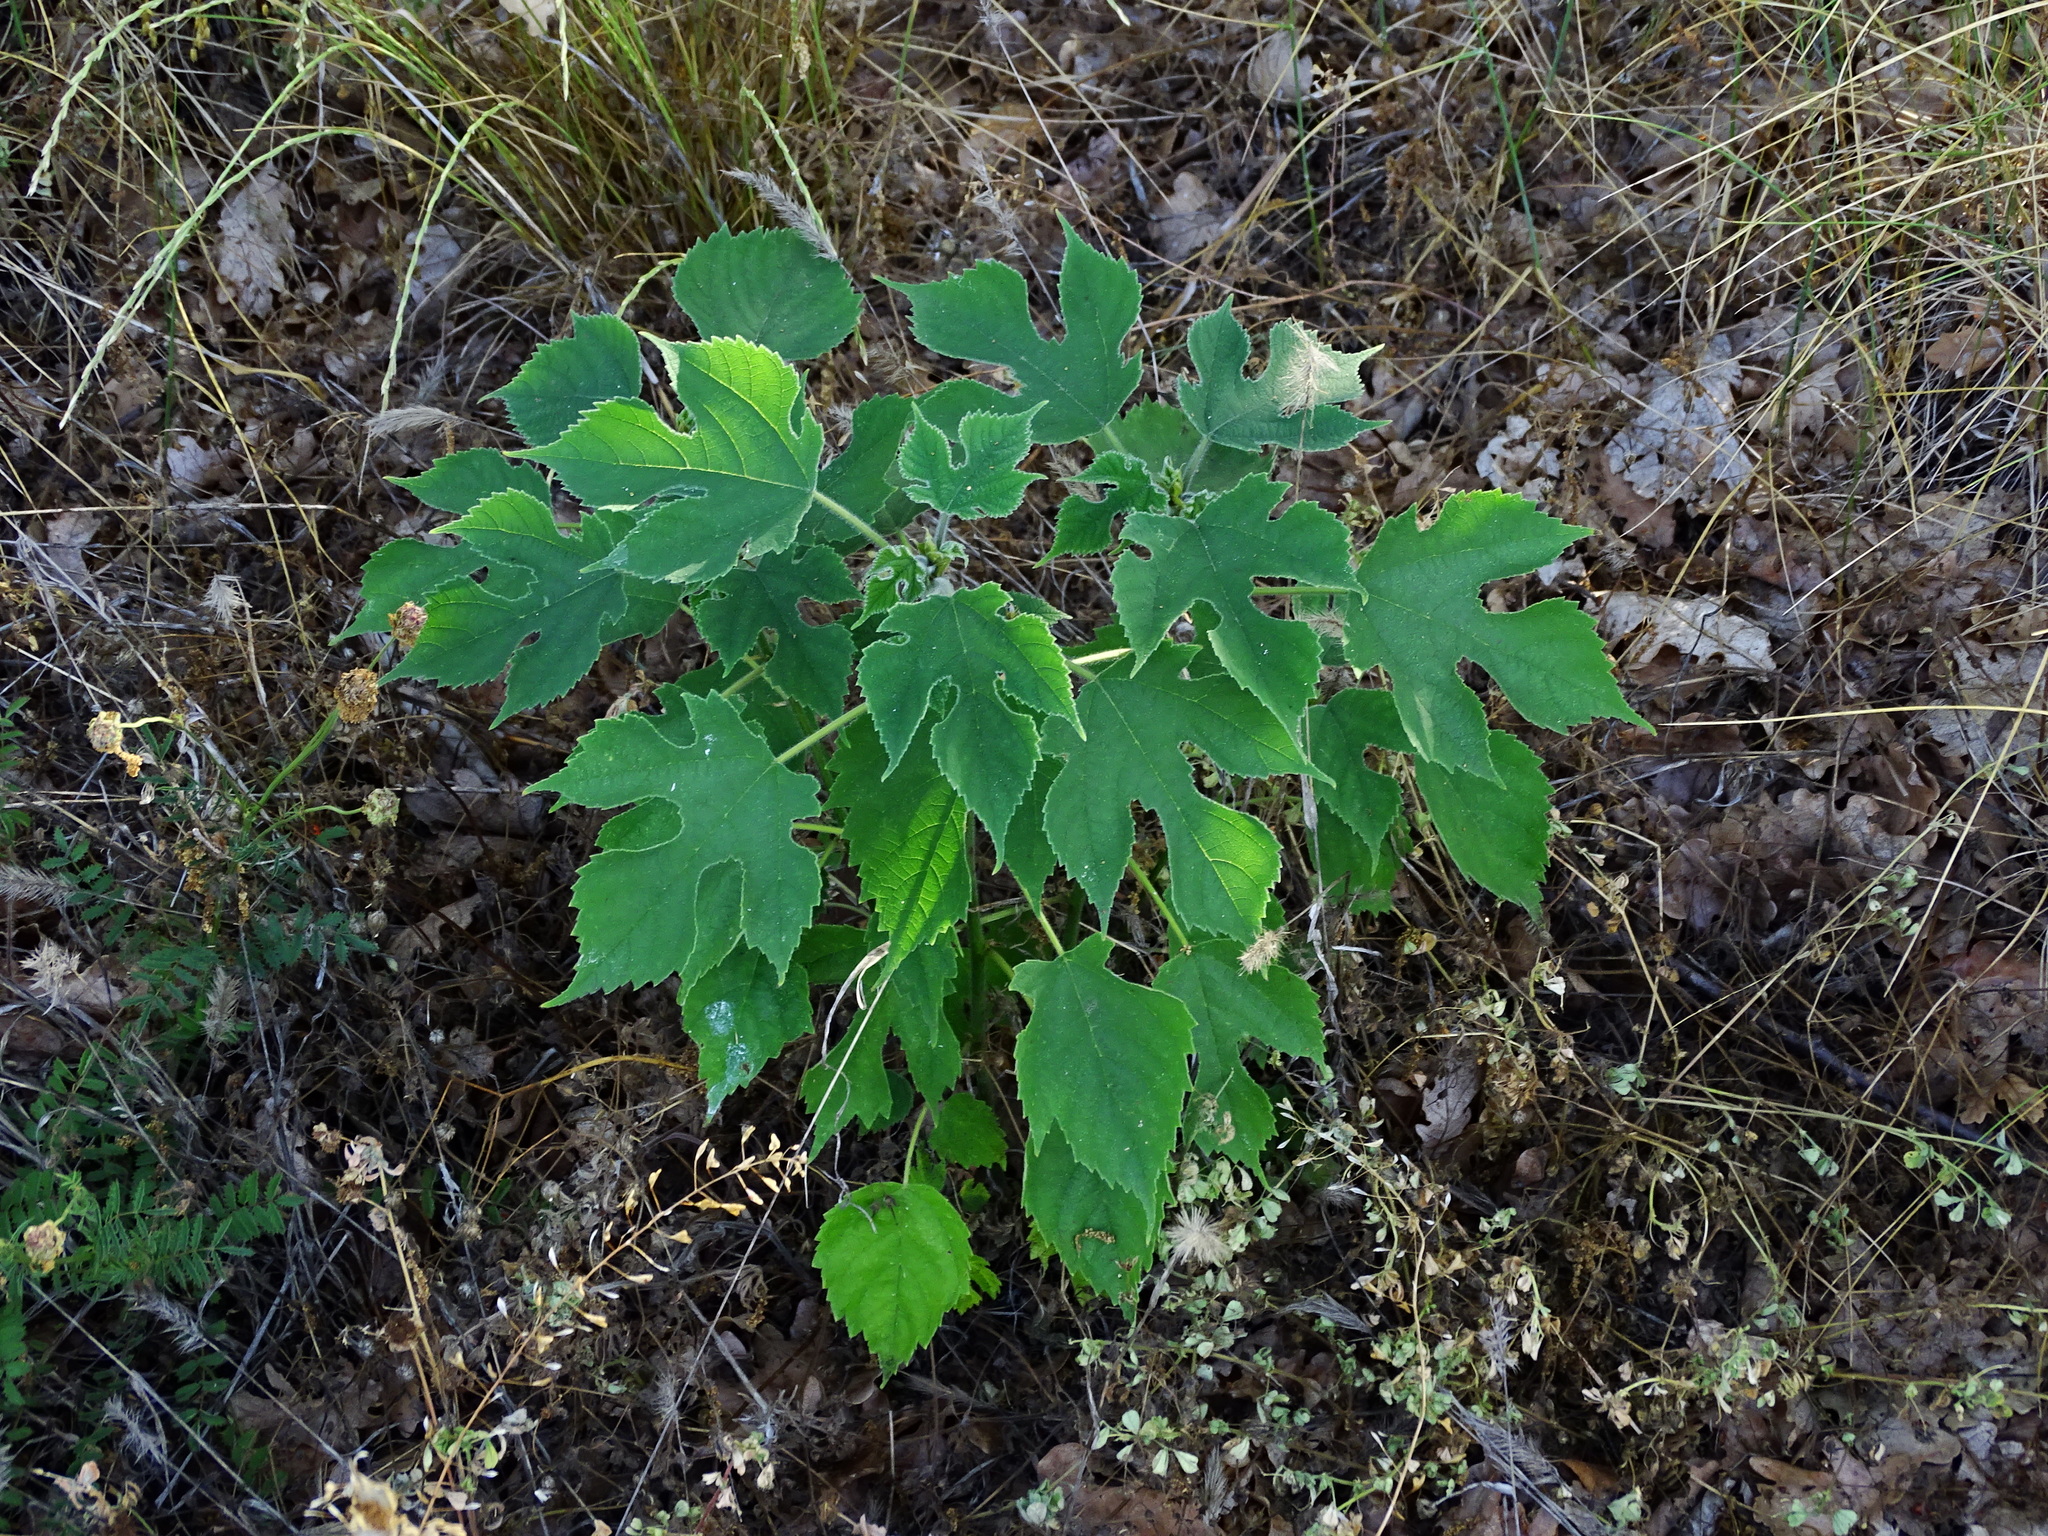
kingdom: Plantae
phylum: Tracheophyta
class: Magnoliopsida
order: Rosales
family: Moraceae
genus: Broussonetia
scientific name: Broussonetia papyrifera
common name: Paper mulberry
